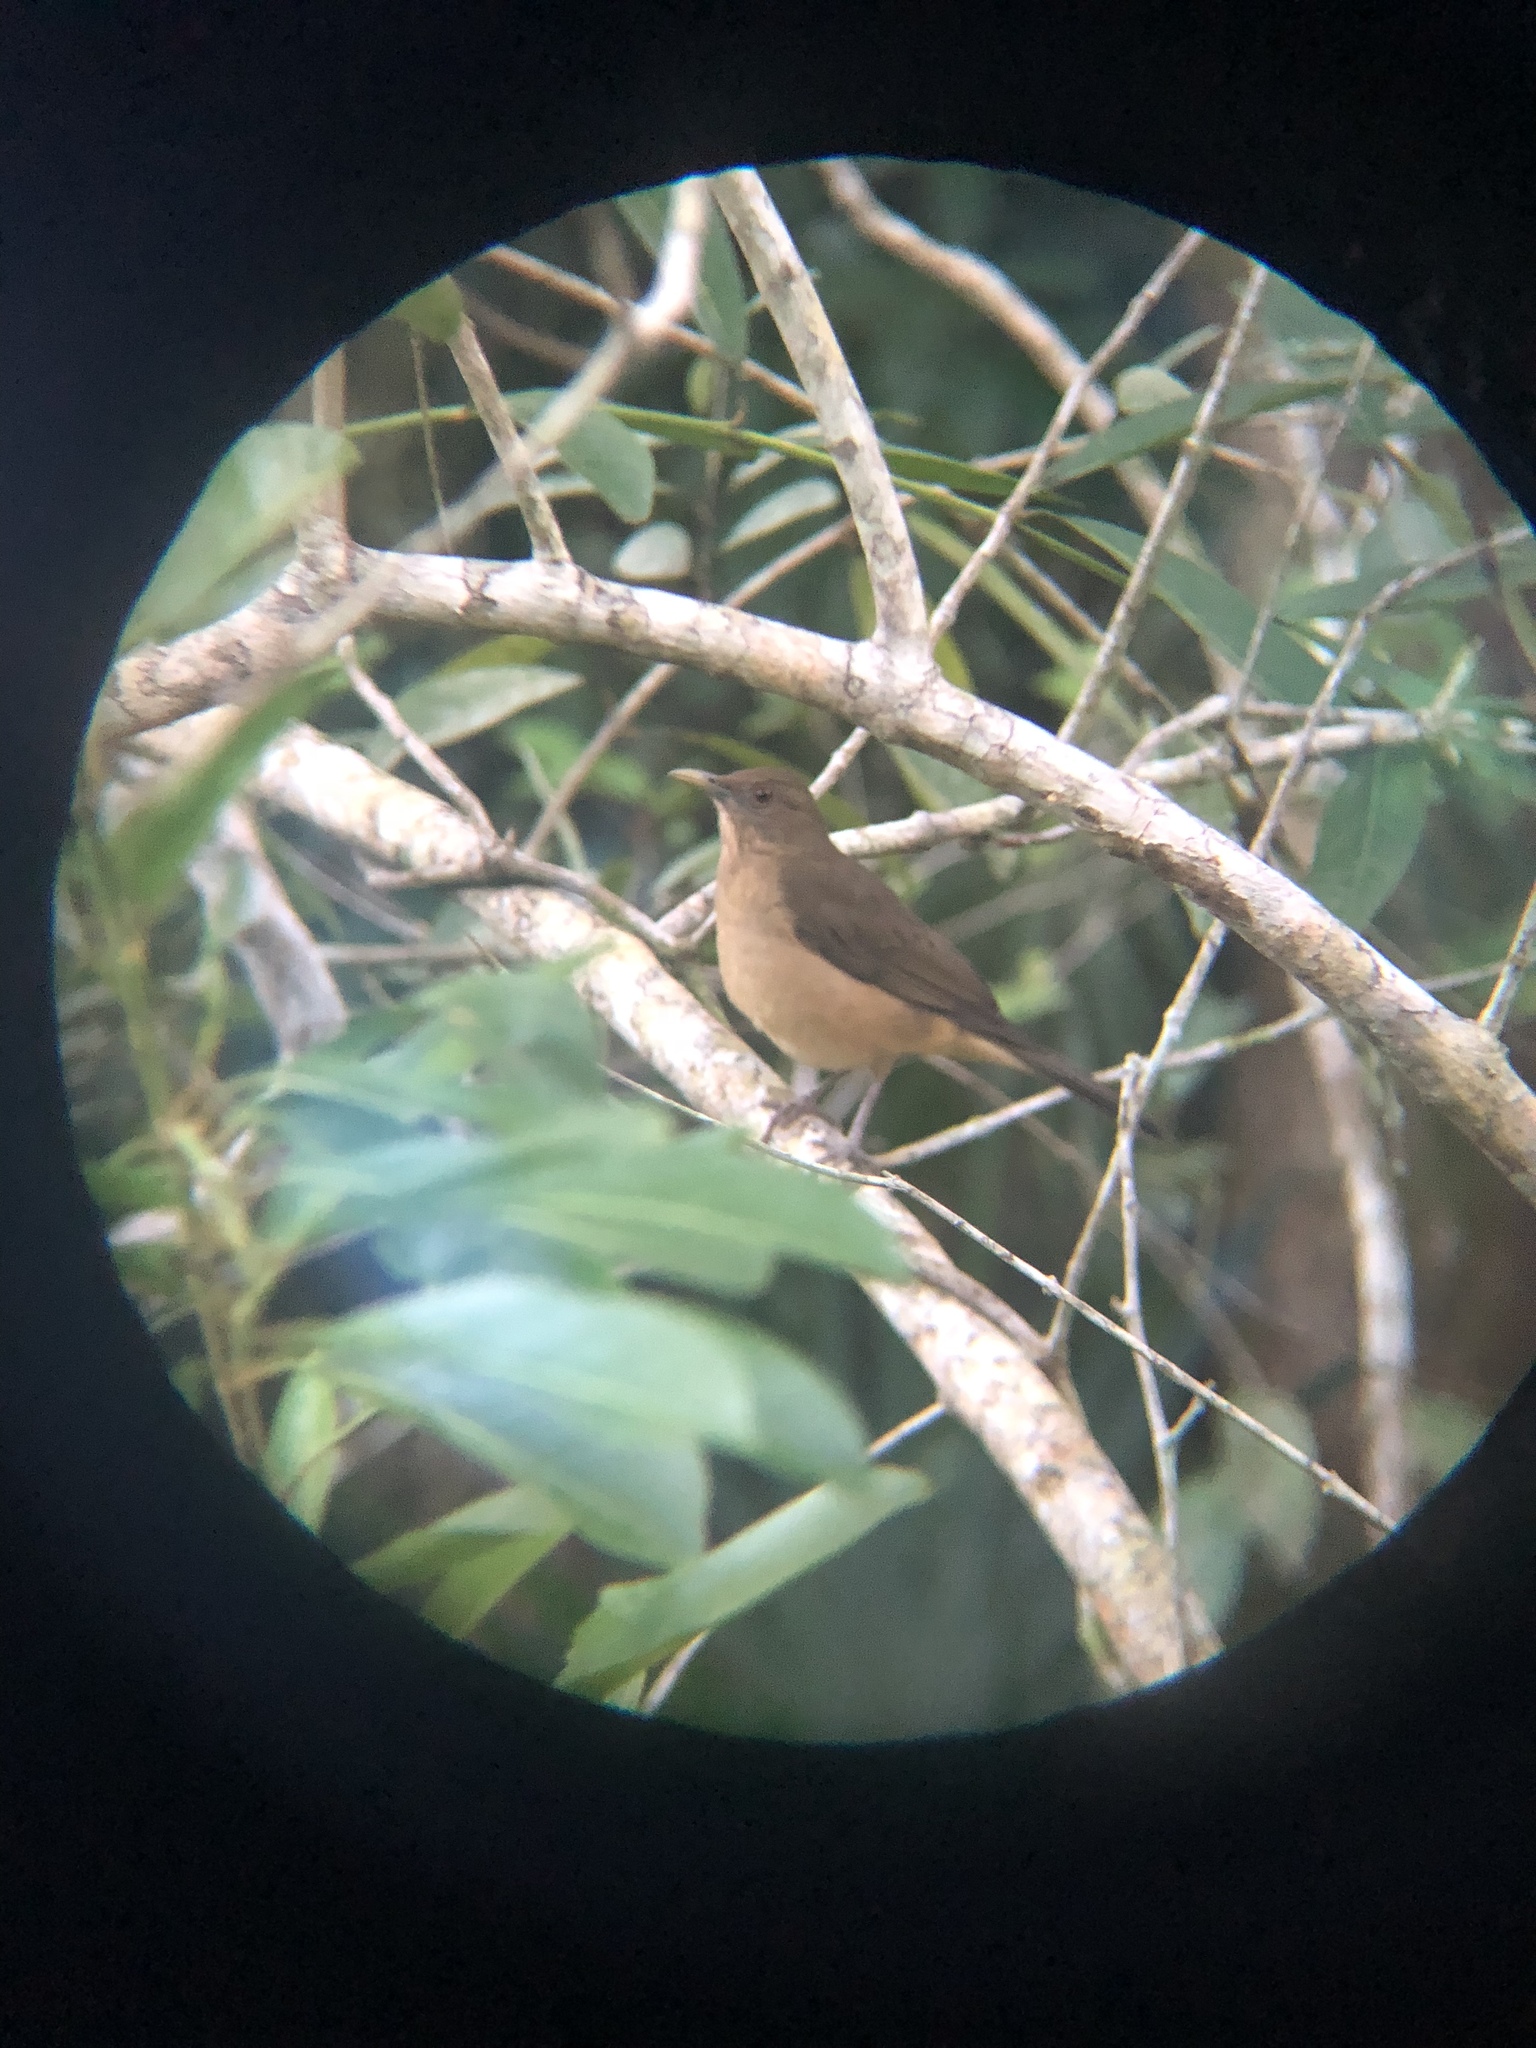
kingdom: Animalia
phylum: Chordata
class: Aves
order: Passeriformes
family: Turdidae
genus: Turdus
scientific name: Turdus grayi
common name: Clay-colored thrush
